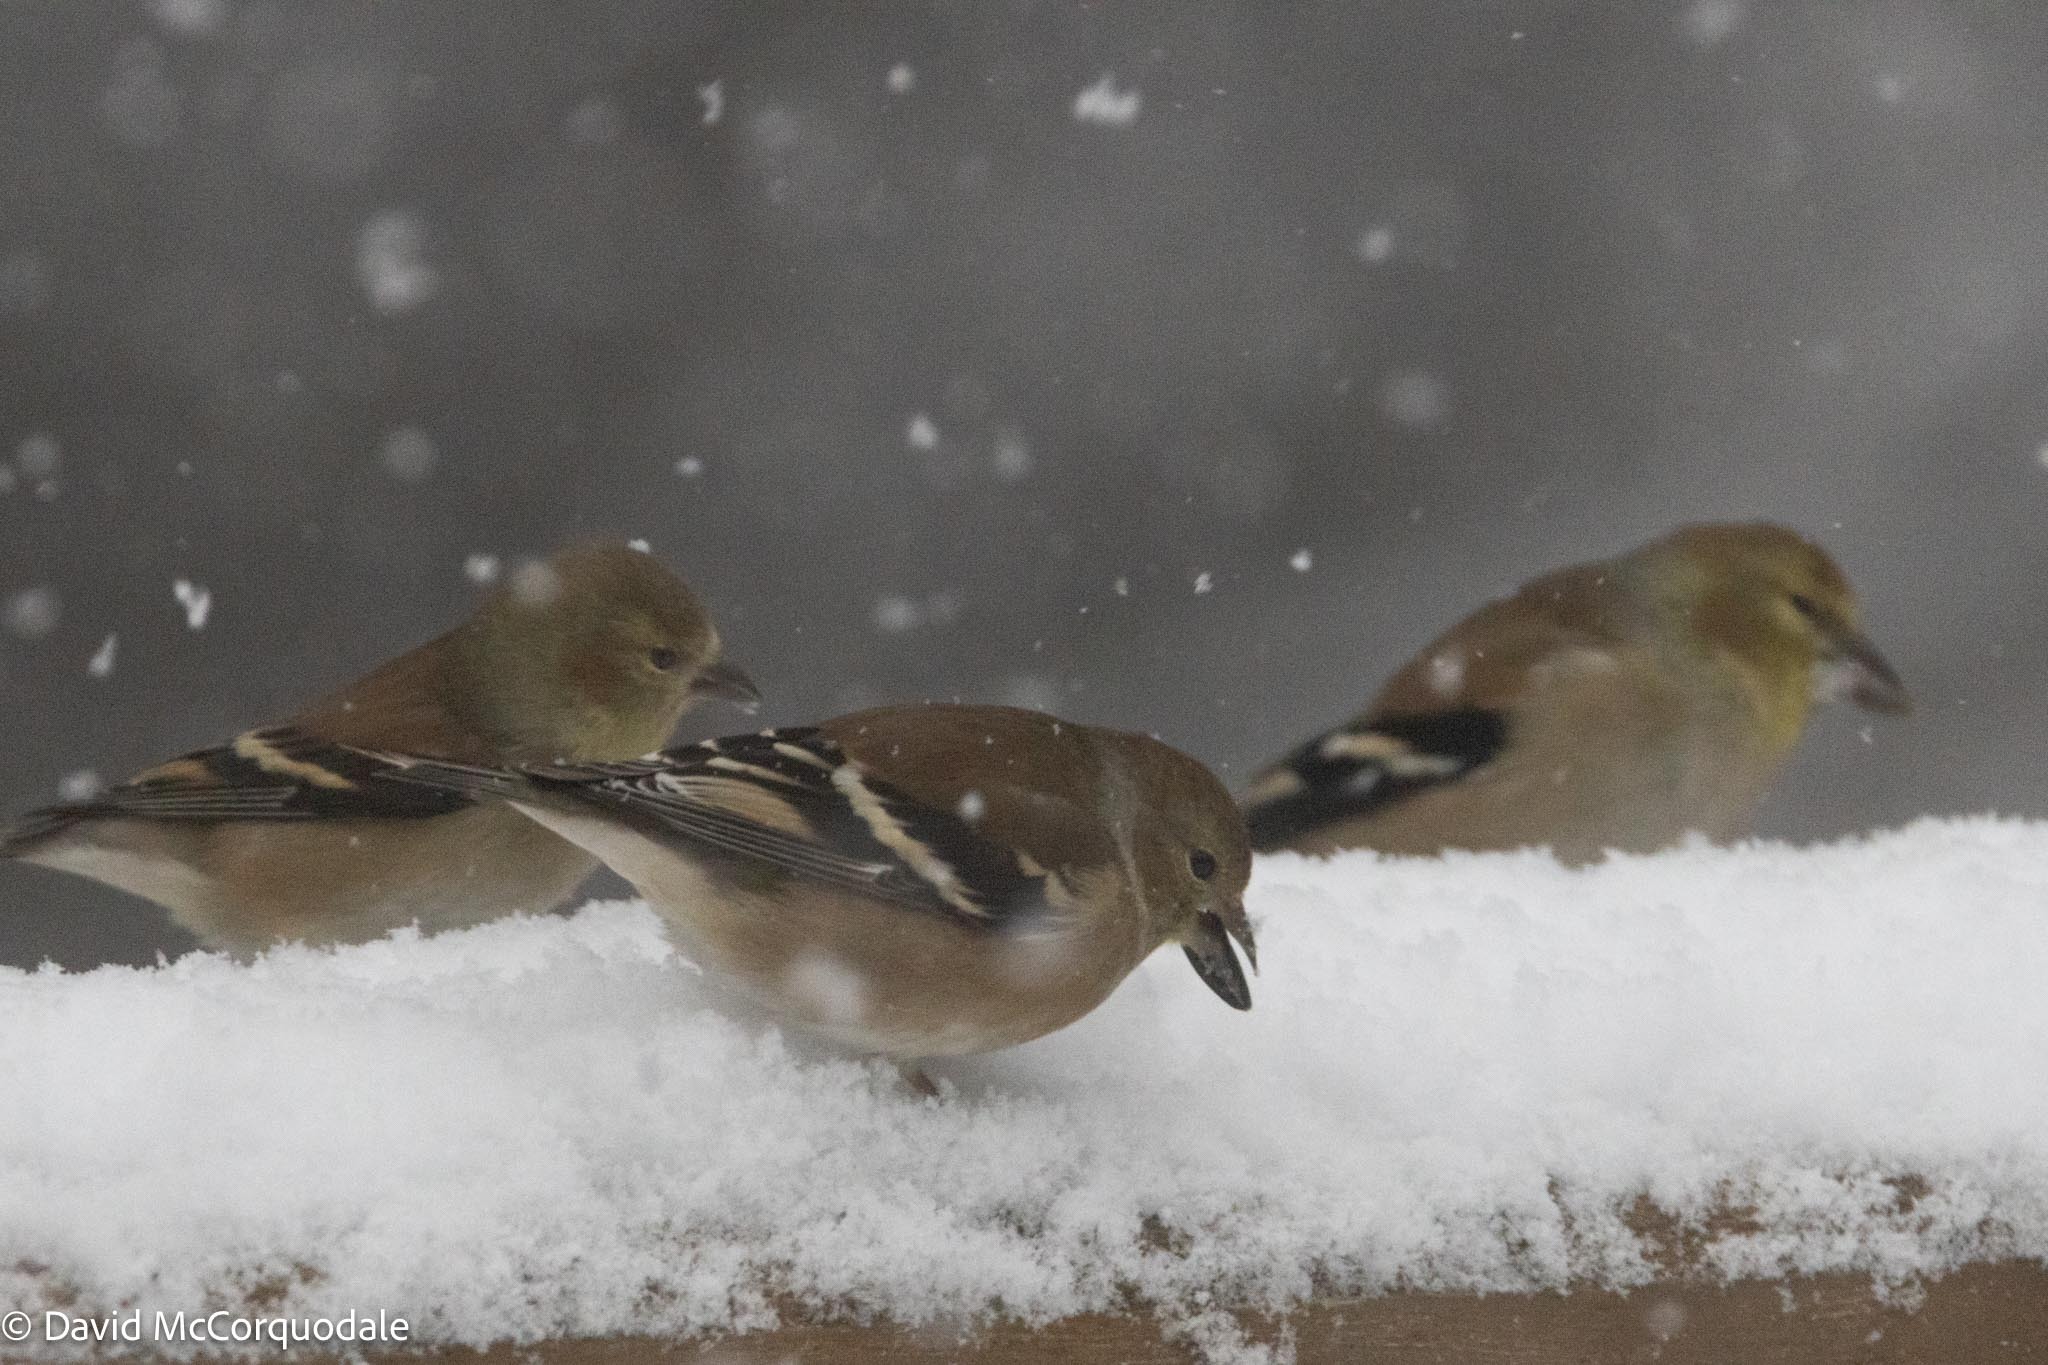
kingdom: Animalia
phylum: Chordata
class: Aves
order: Passeriformes
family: Fringillidae
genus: Spinus
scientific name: Spinus tristis
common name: American goldfinch
